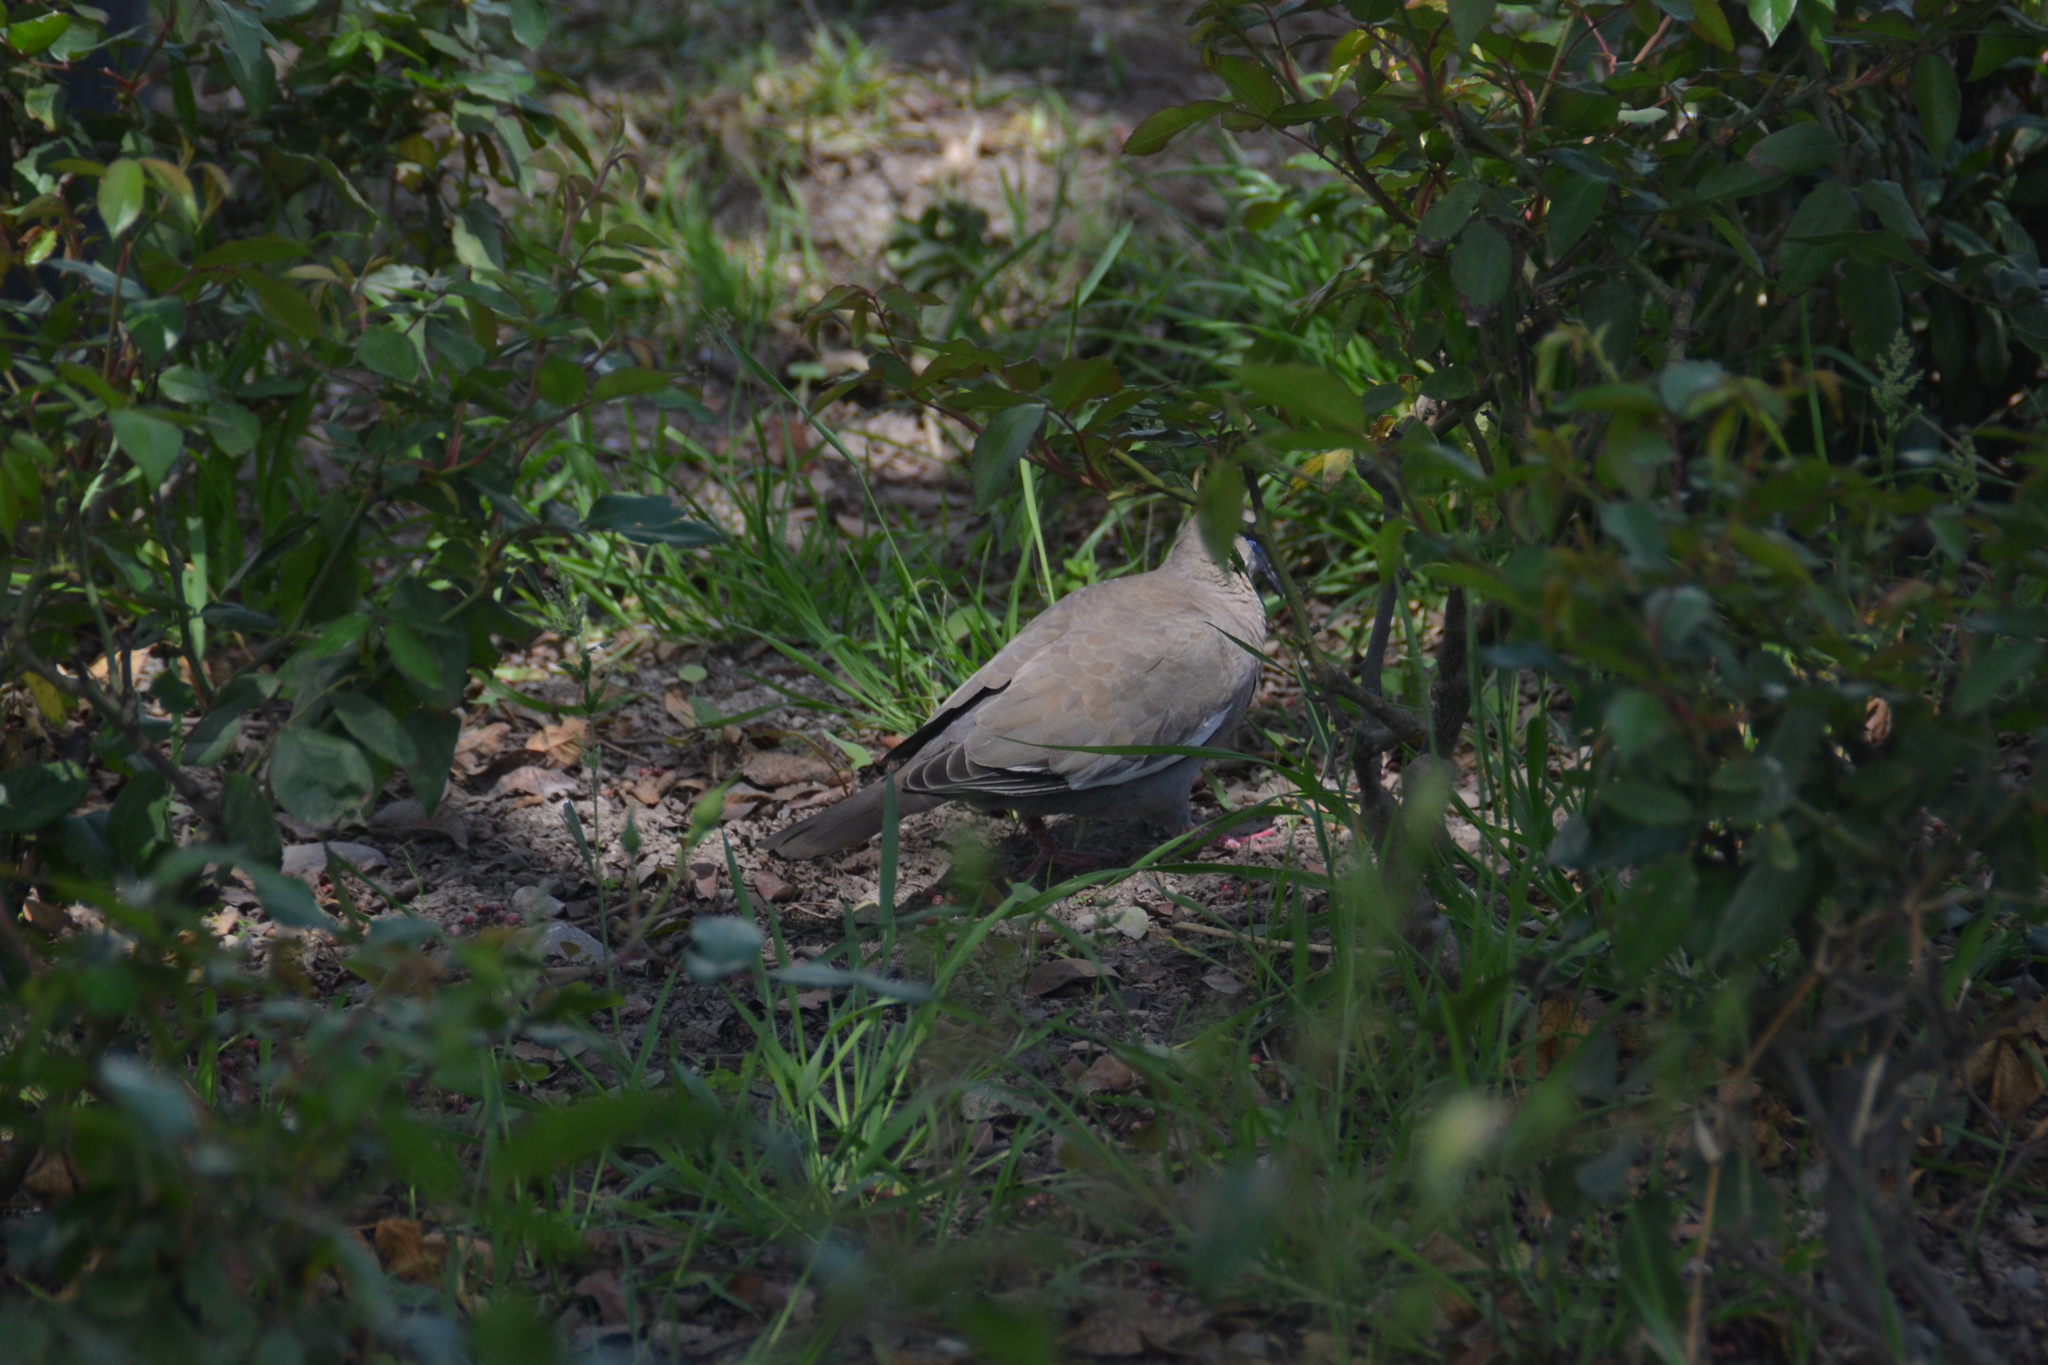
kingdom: Animalia
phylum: Chordata
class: Aves
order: Columbiformes
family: Columbidae
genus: Zenaida
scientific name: Zenaida meloda
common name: West peruvian dove
